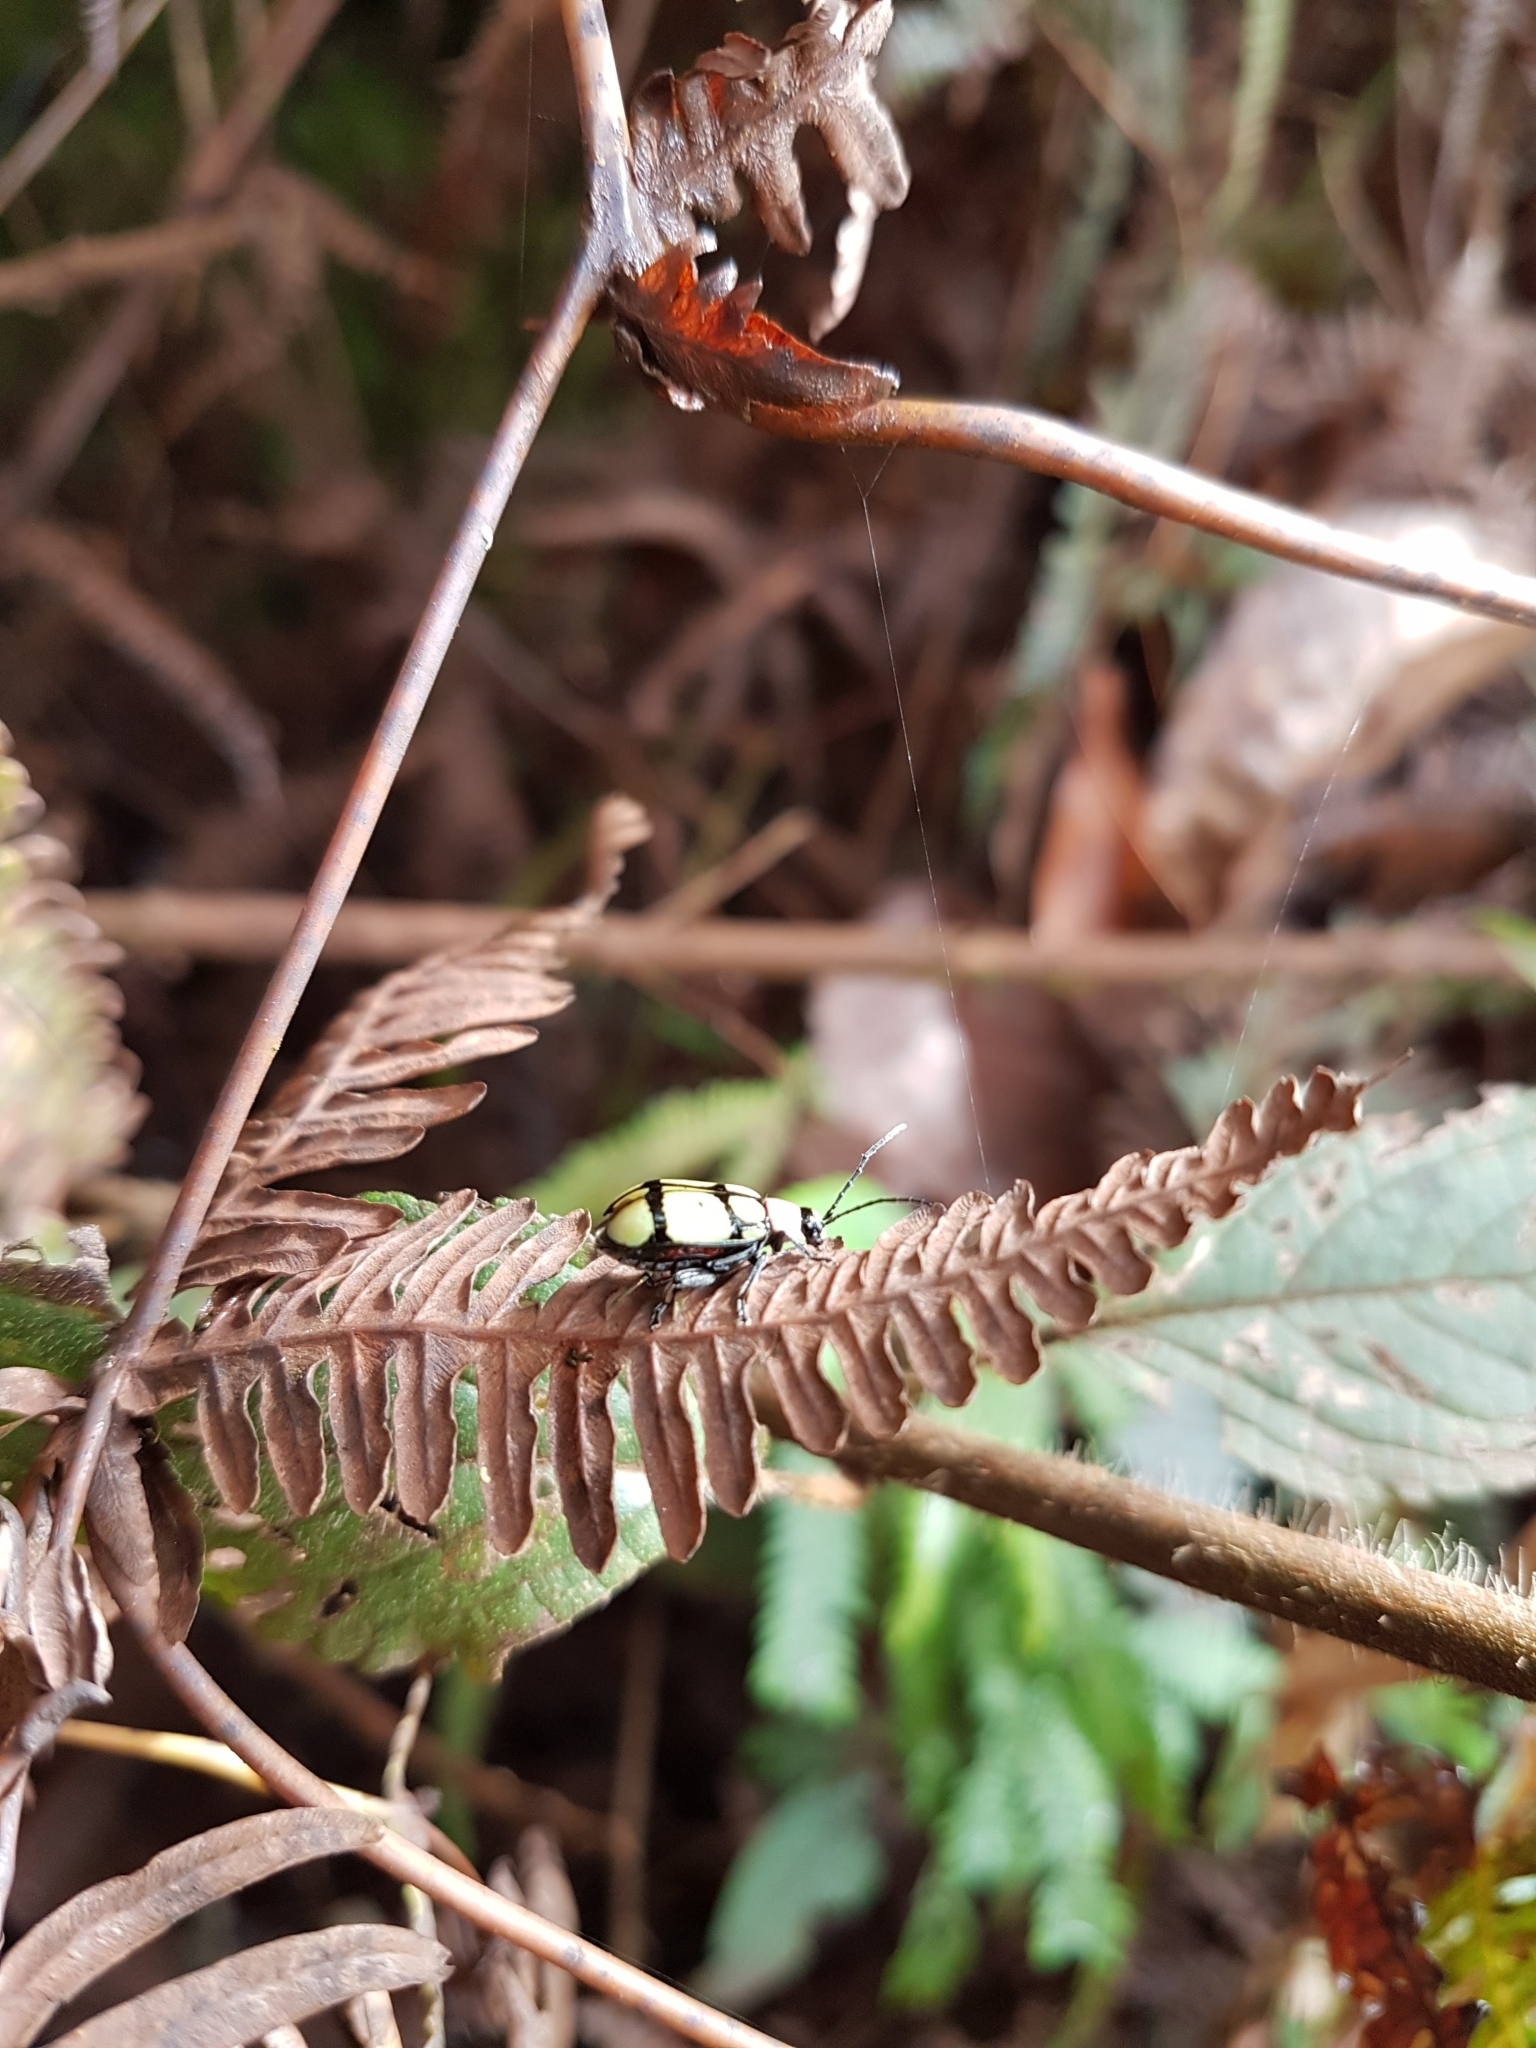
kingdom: Animalia
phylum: Arthropoda
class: Insecta
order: Coleoptera
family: Chrysomelidae
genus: Omophoita
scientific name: Omophoita
